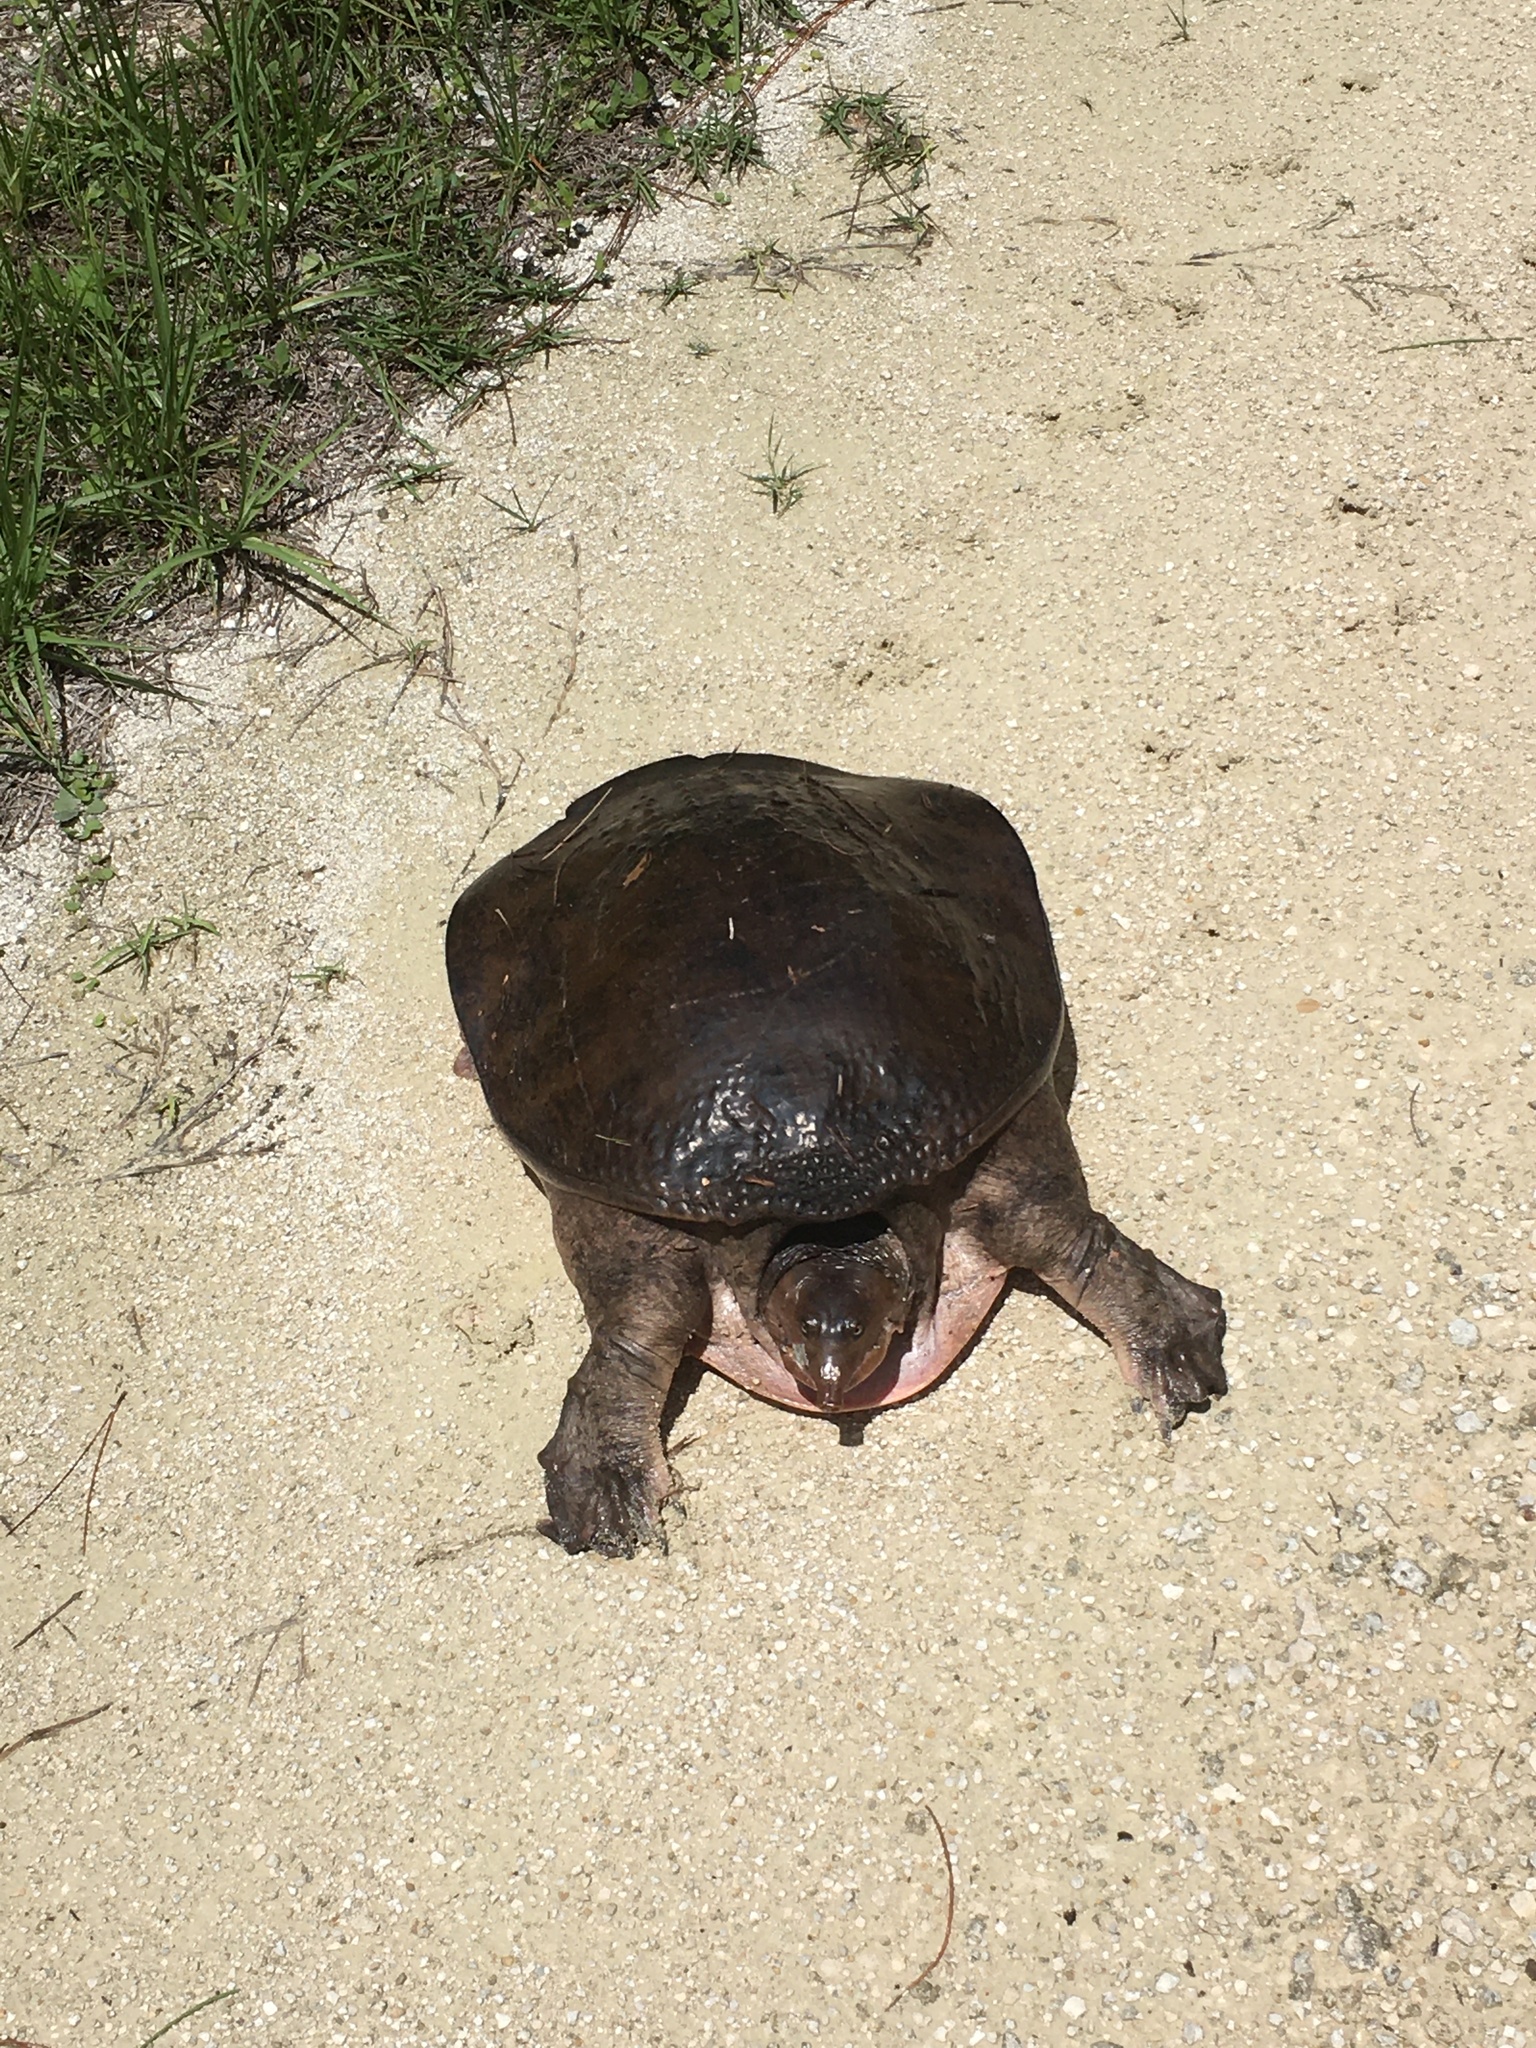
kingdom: Animalia
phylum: Chordata
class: Testudines
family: Trionychidae
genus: Apalone
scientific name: Apalone ferox
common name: Florida softshell turtle
